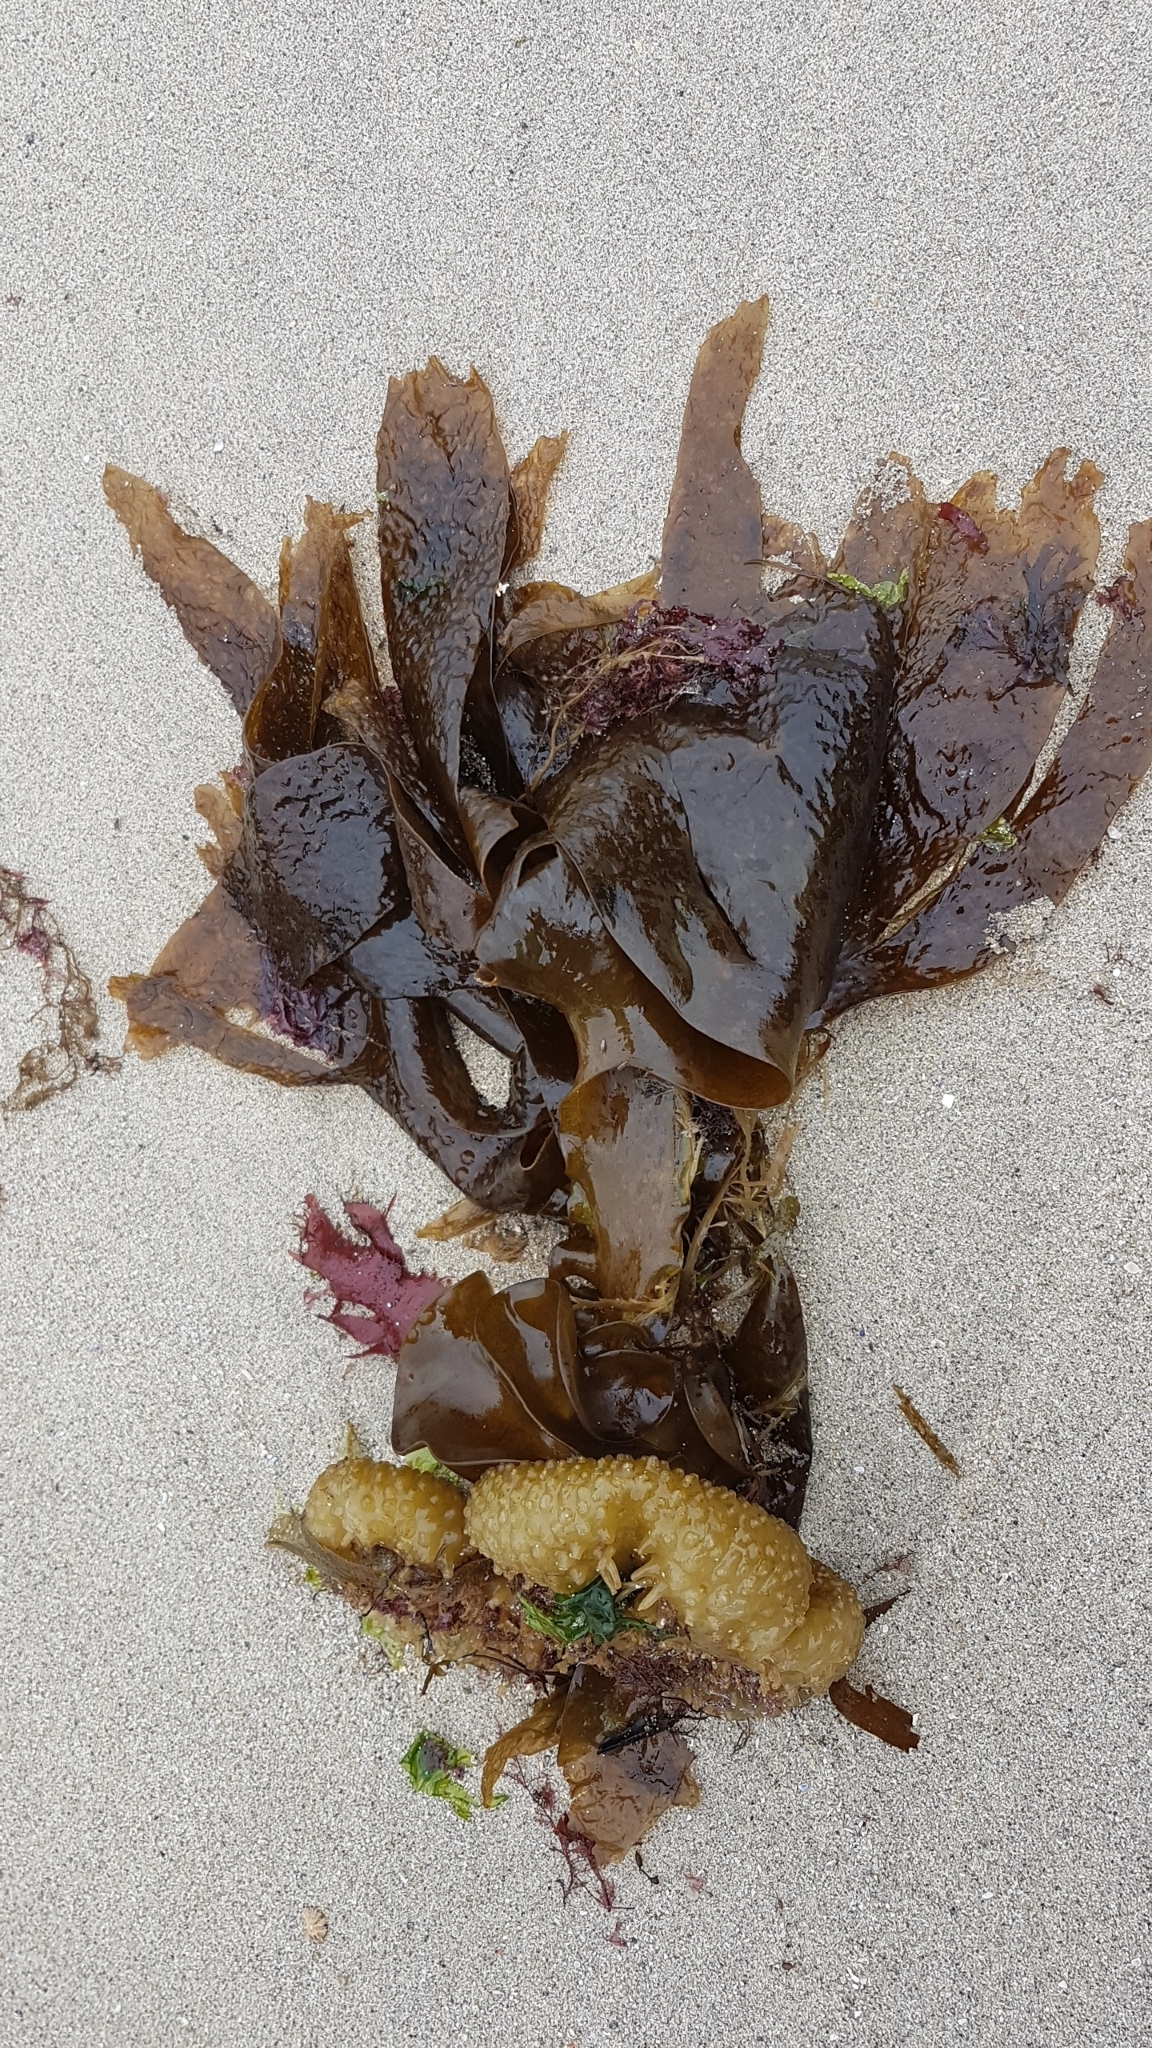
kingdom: Chromista
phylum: Ochrophyta
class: Phaeophyceae
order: Tilopteridales
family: Phyllariaceae
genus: Saccorhiza
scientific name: Saccorhiza polyschides
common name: Furbelows
